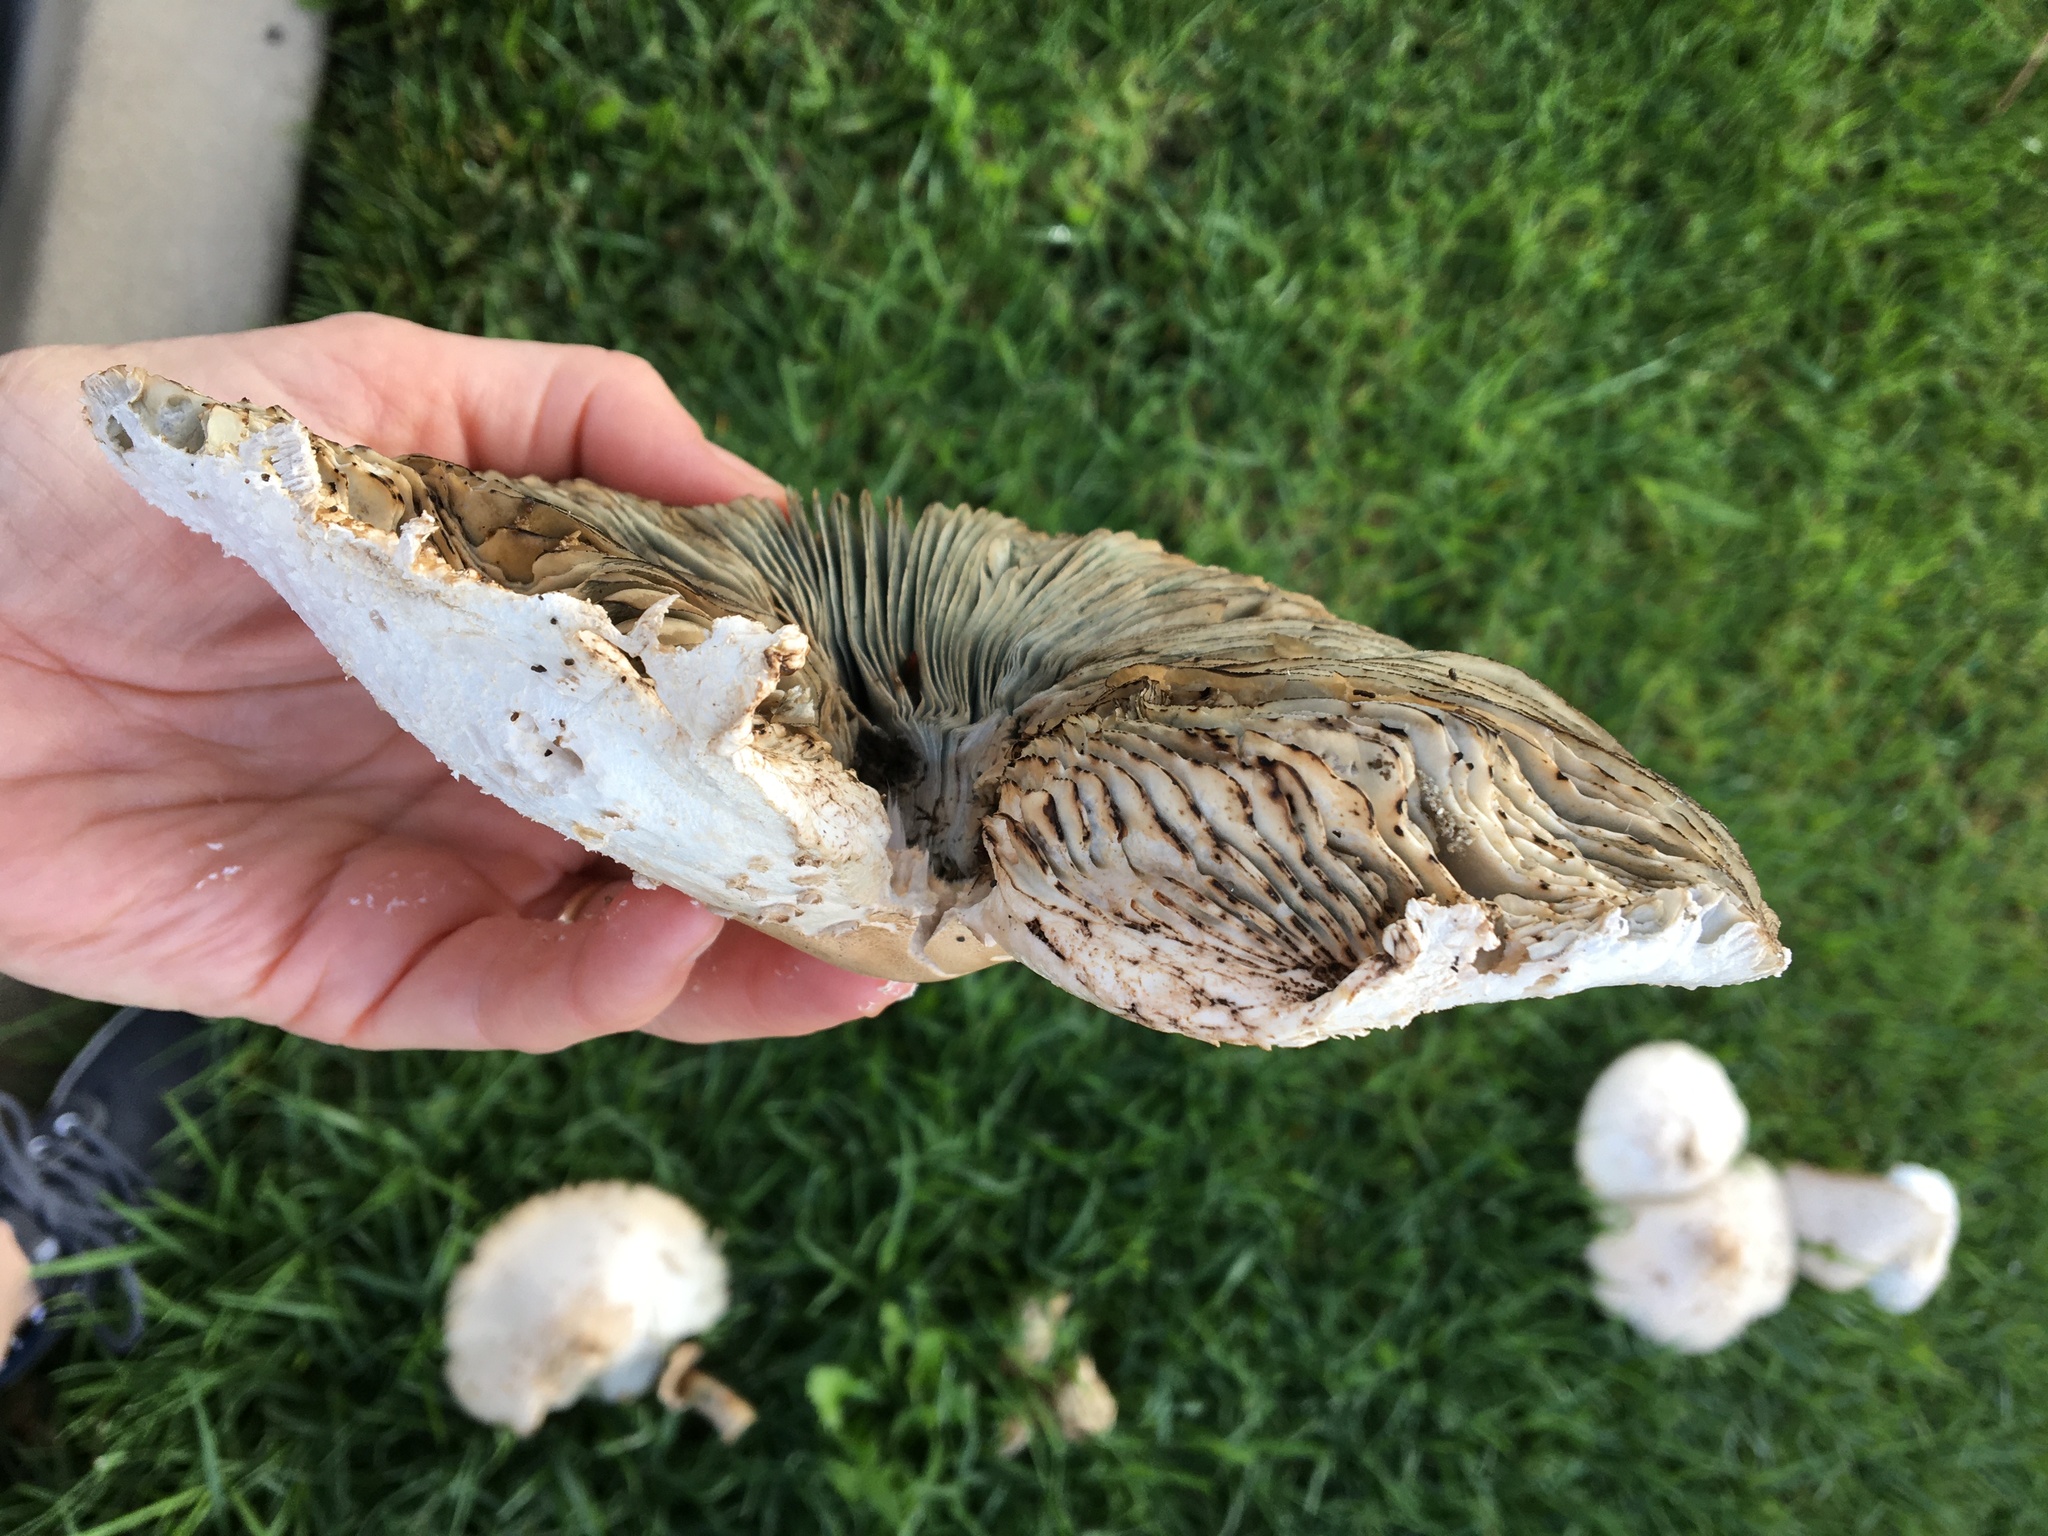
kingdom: Fungi
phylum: Basidiomycota
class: Agaricomycetes
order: Agaricales
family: Agaricaceae
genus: Chlorophyllum
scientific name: Chlorophyllum molybdites
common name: False parasol
